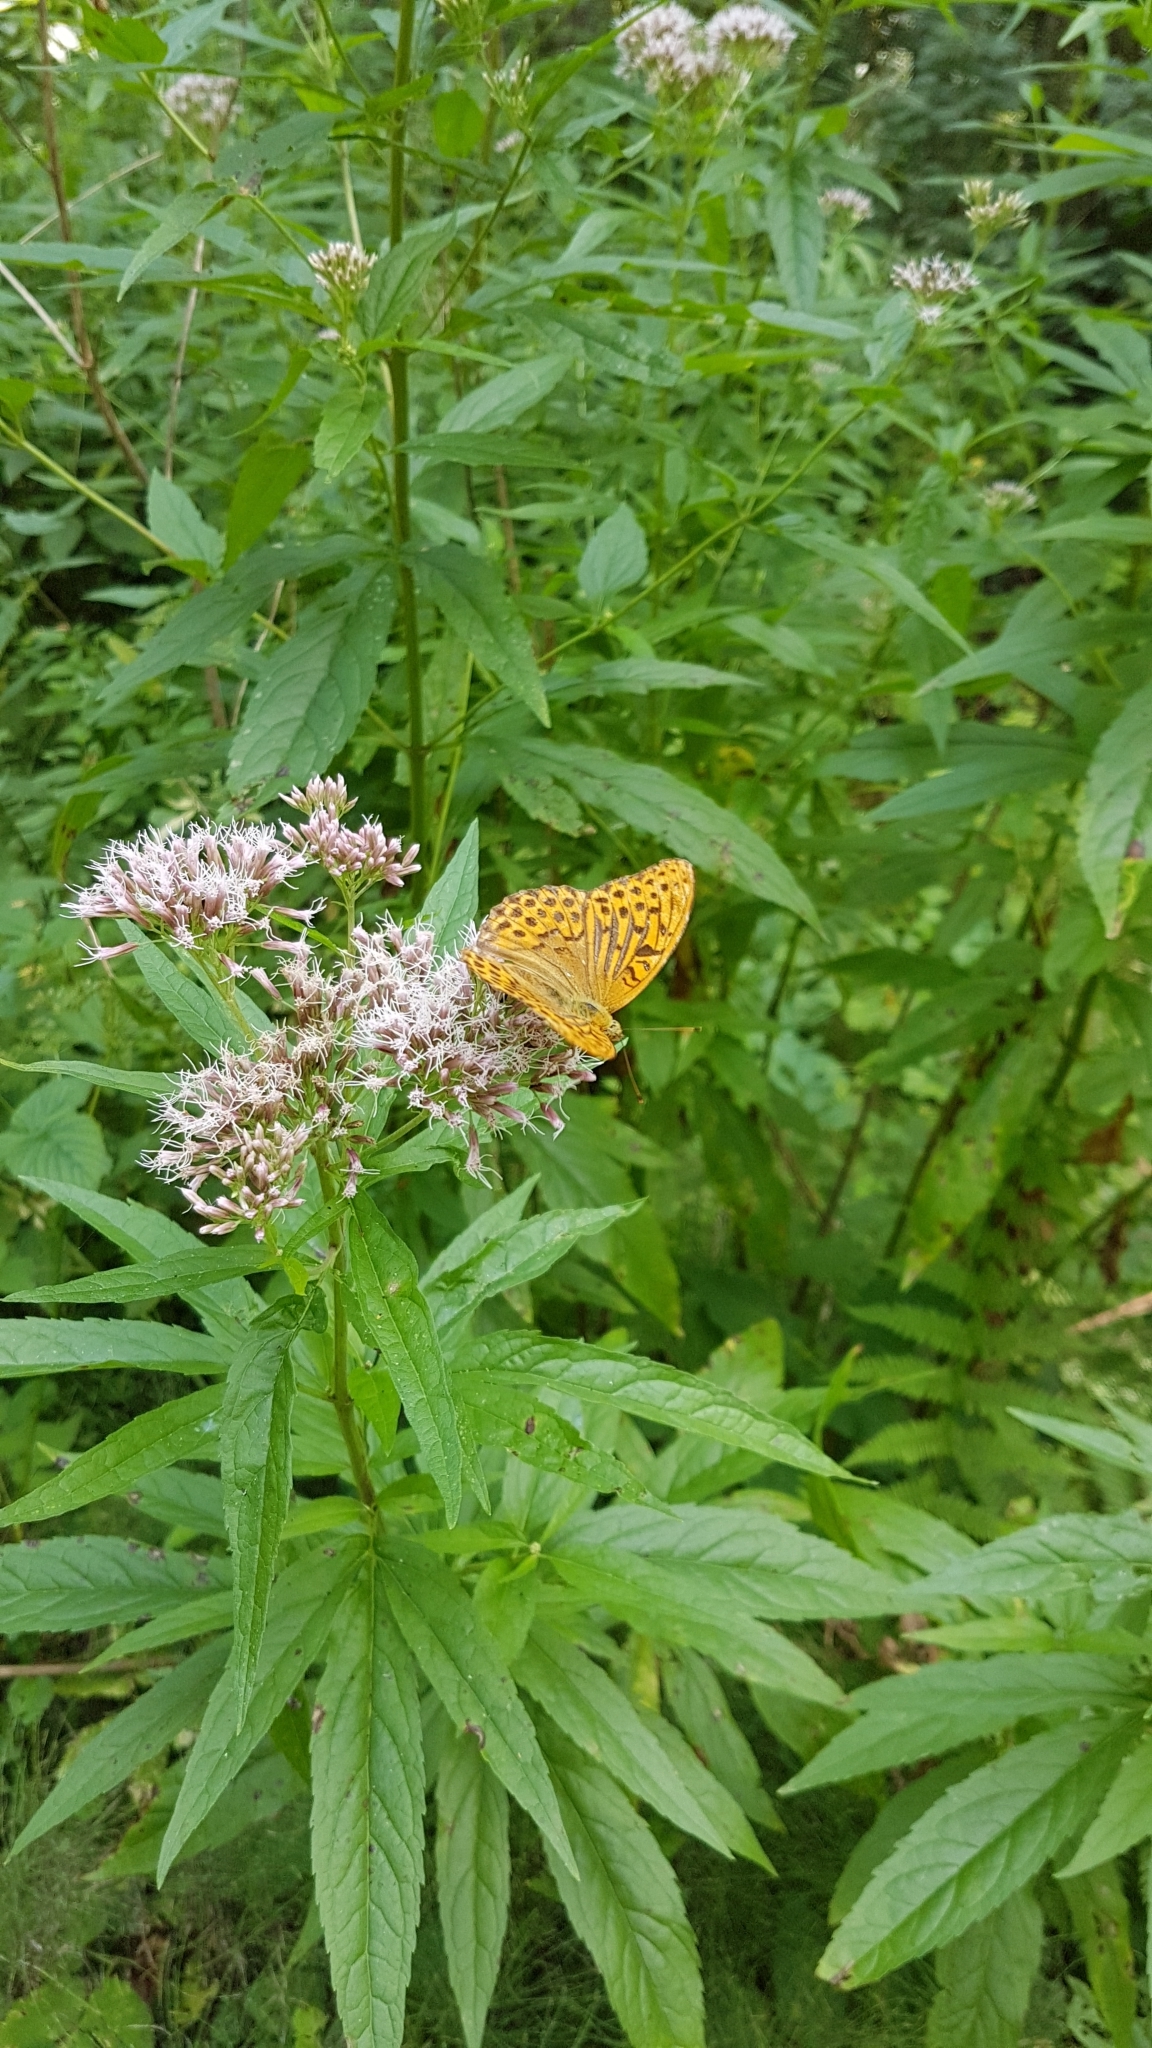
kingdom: Animalia
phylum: Arthropoda
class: Insecta
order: Lepidoptera
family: Nymphalidae
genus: Argynnis
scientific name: Argynnis paphia
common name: Silver-washed fritillary
